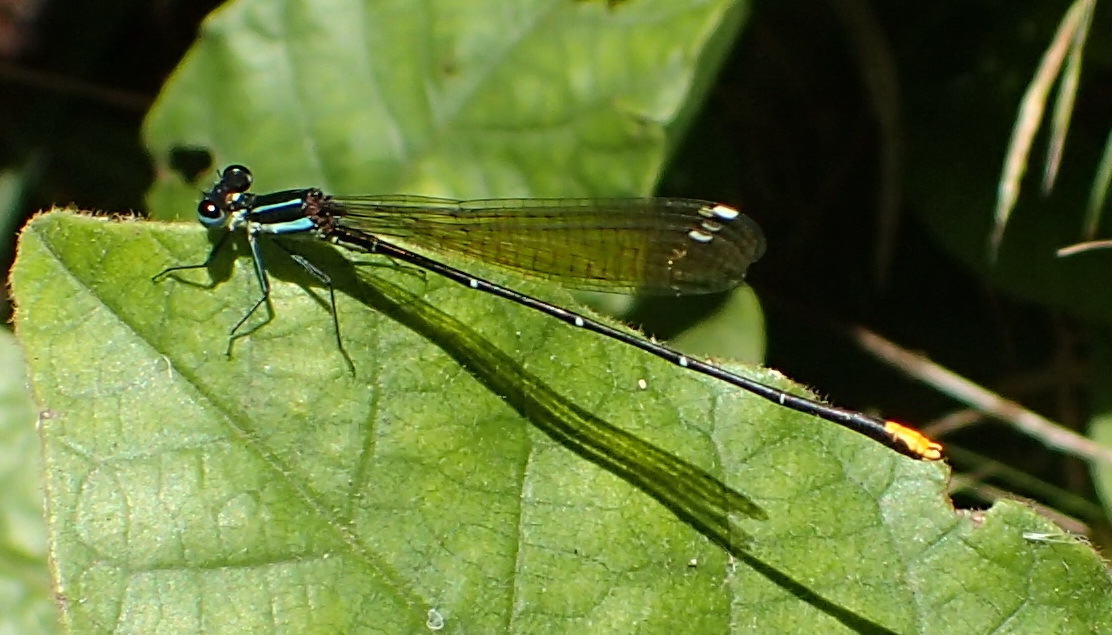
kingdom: Animalia
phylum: Arthropoda
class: Insecta
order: Odonata
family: Platycnemididae
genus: Allocnemis
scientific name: Allocnemis leucosticta
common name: Goldtail
